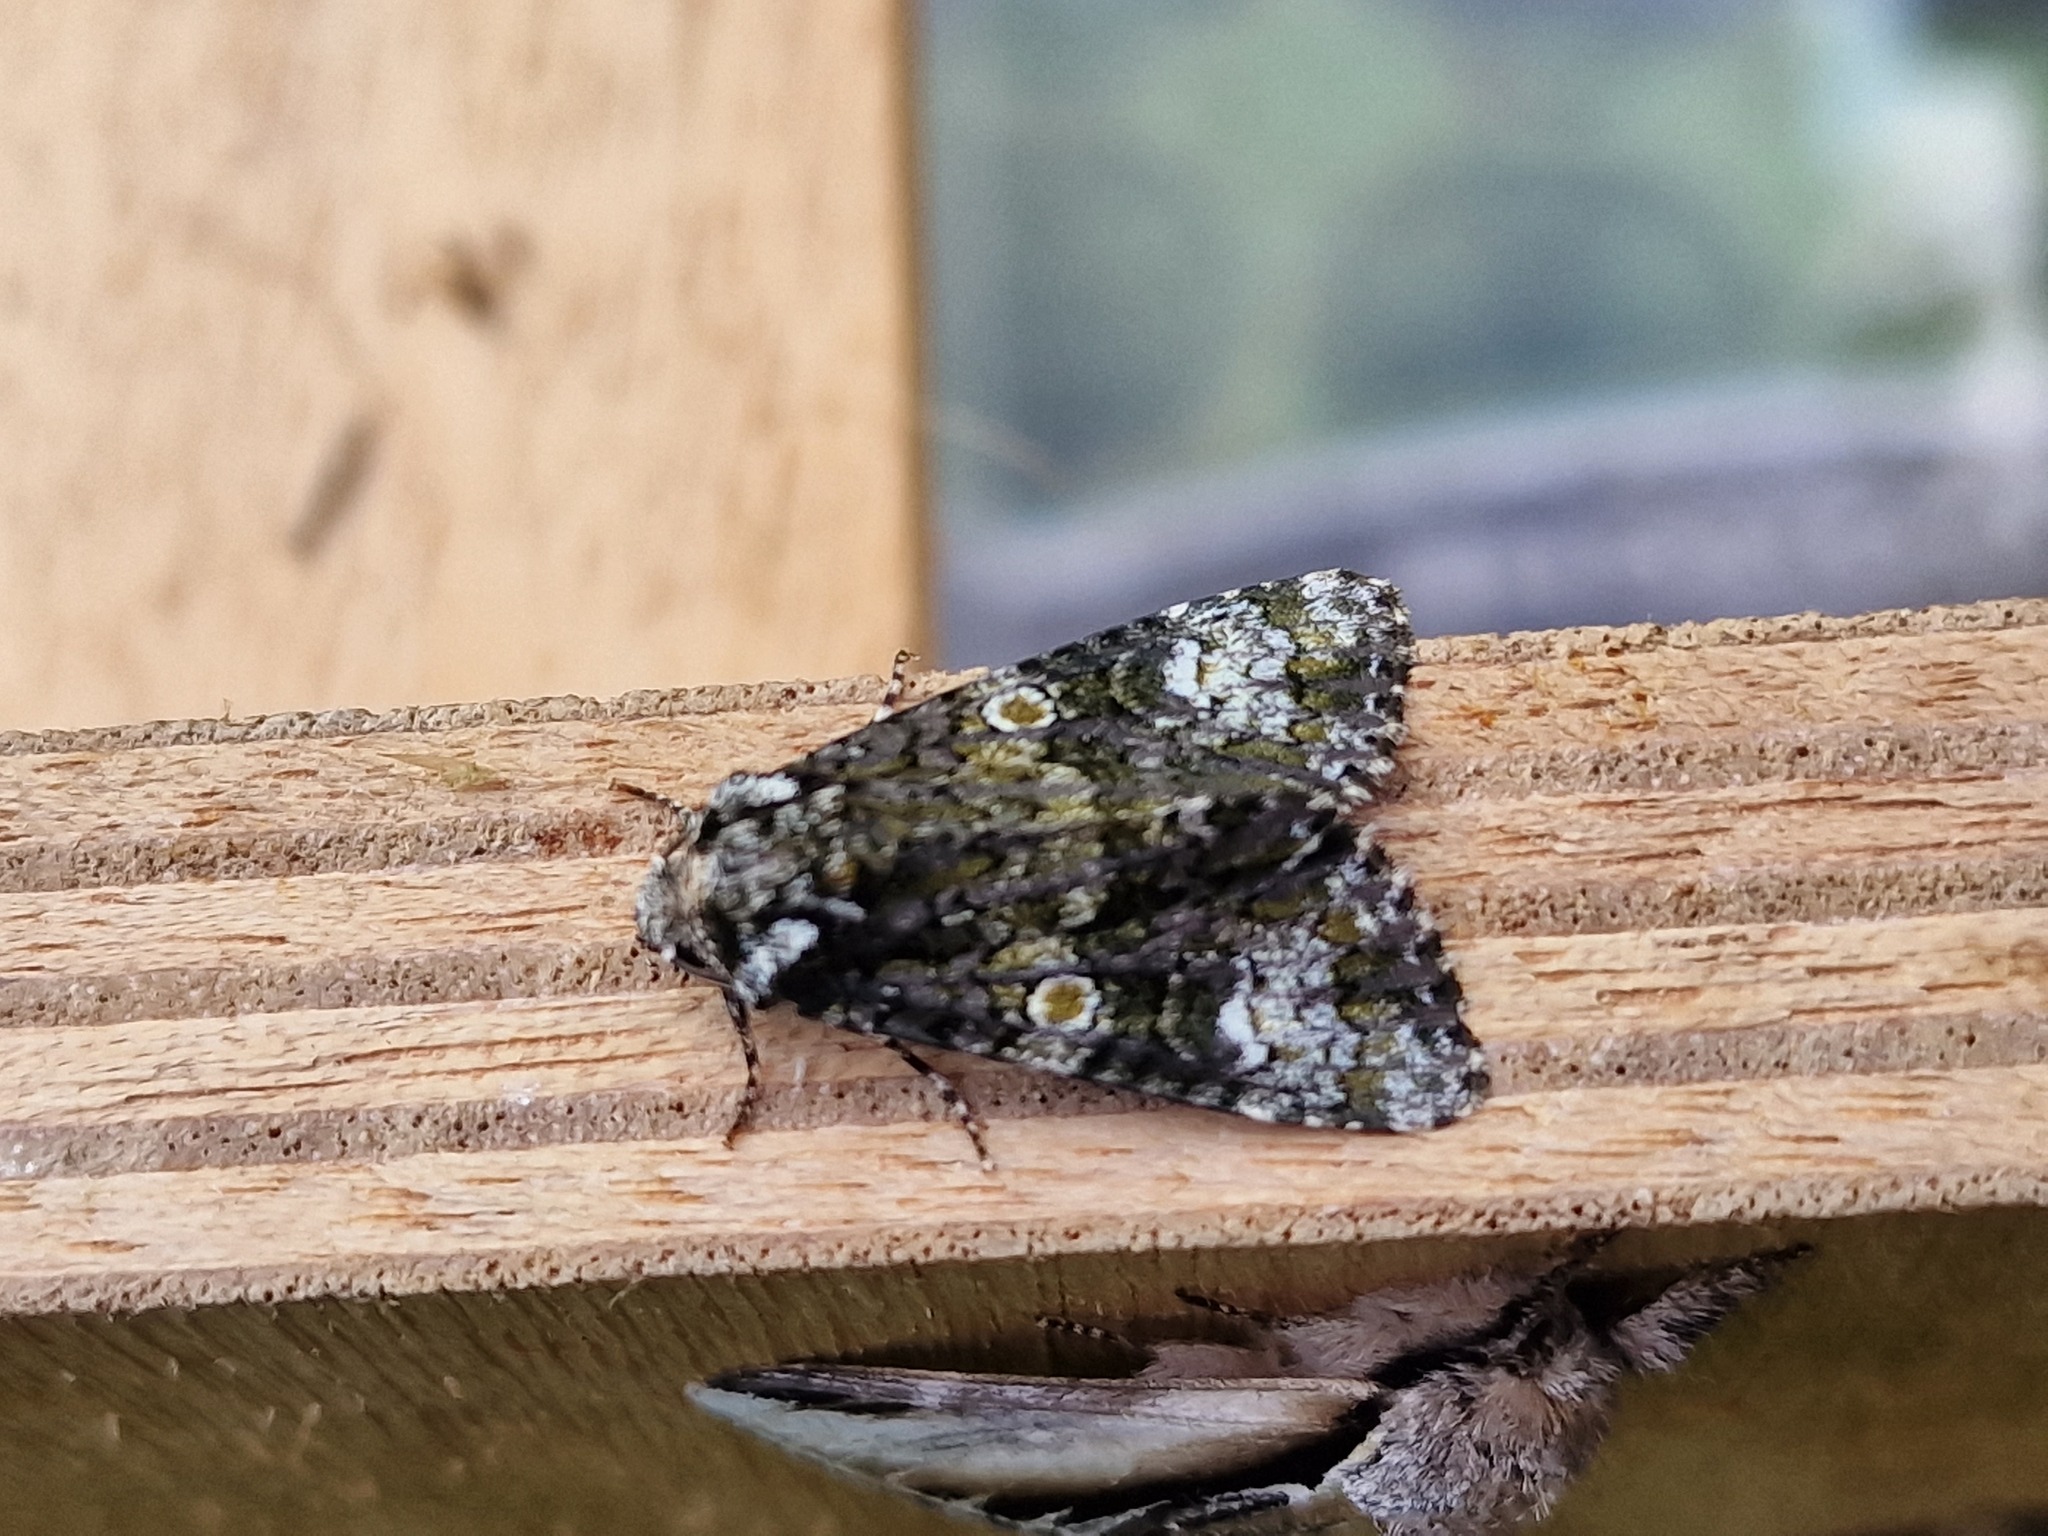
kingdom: Animalia
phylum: Arthropoda
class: Insecta
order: Lepidoptera
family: Noctuidae
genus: Craniophora
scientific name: Craniophora ligustri
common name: Coronet
